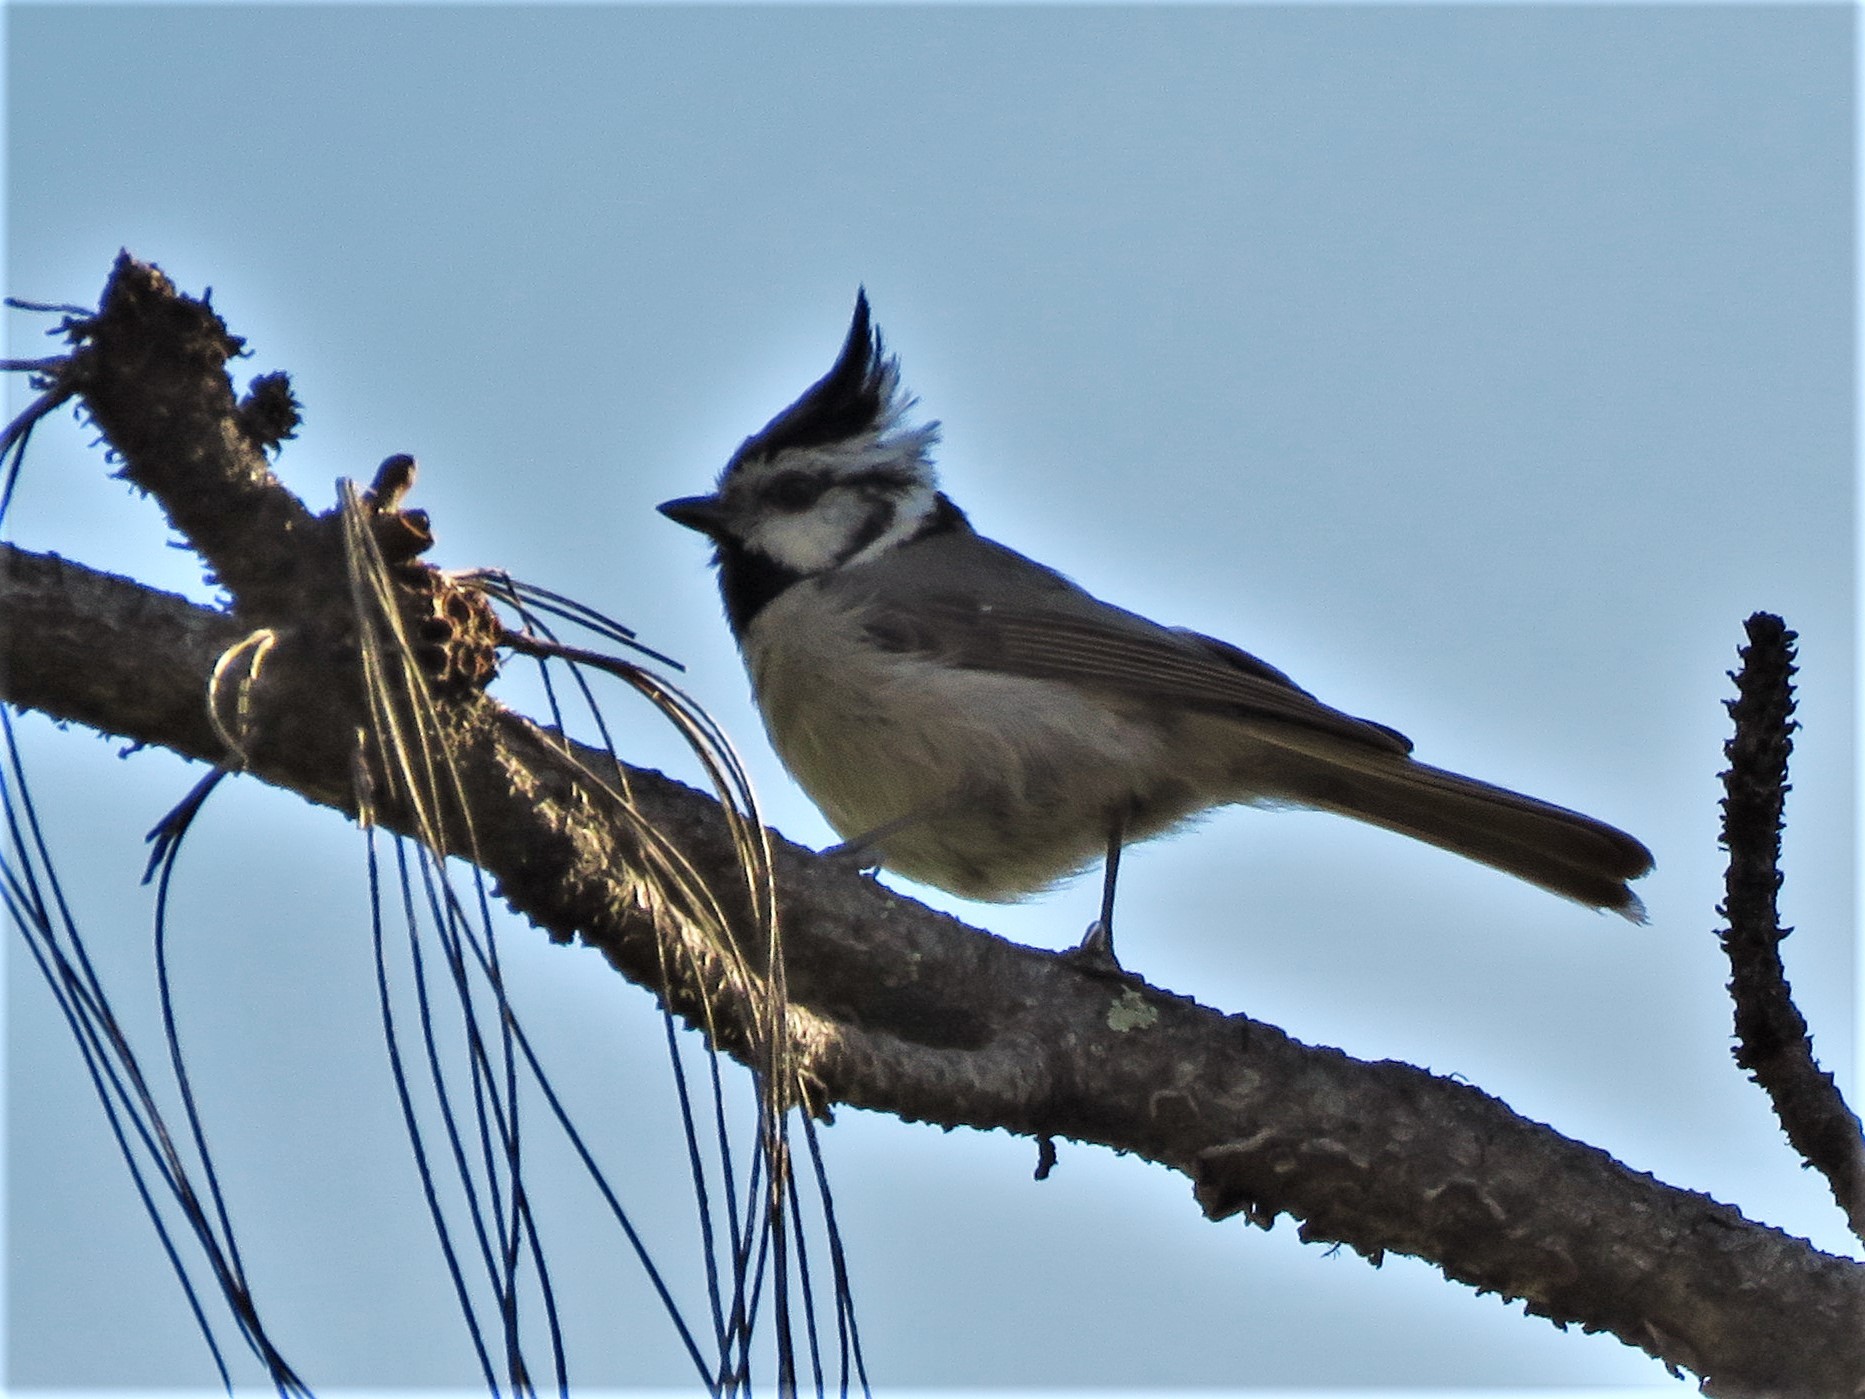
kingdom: Animalia
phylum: Chordata
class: Aves
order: Passeriformes
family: Paridae
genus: Baeolophus
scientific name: Baeolophus wollweberi
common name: Bridled titmouse
